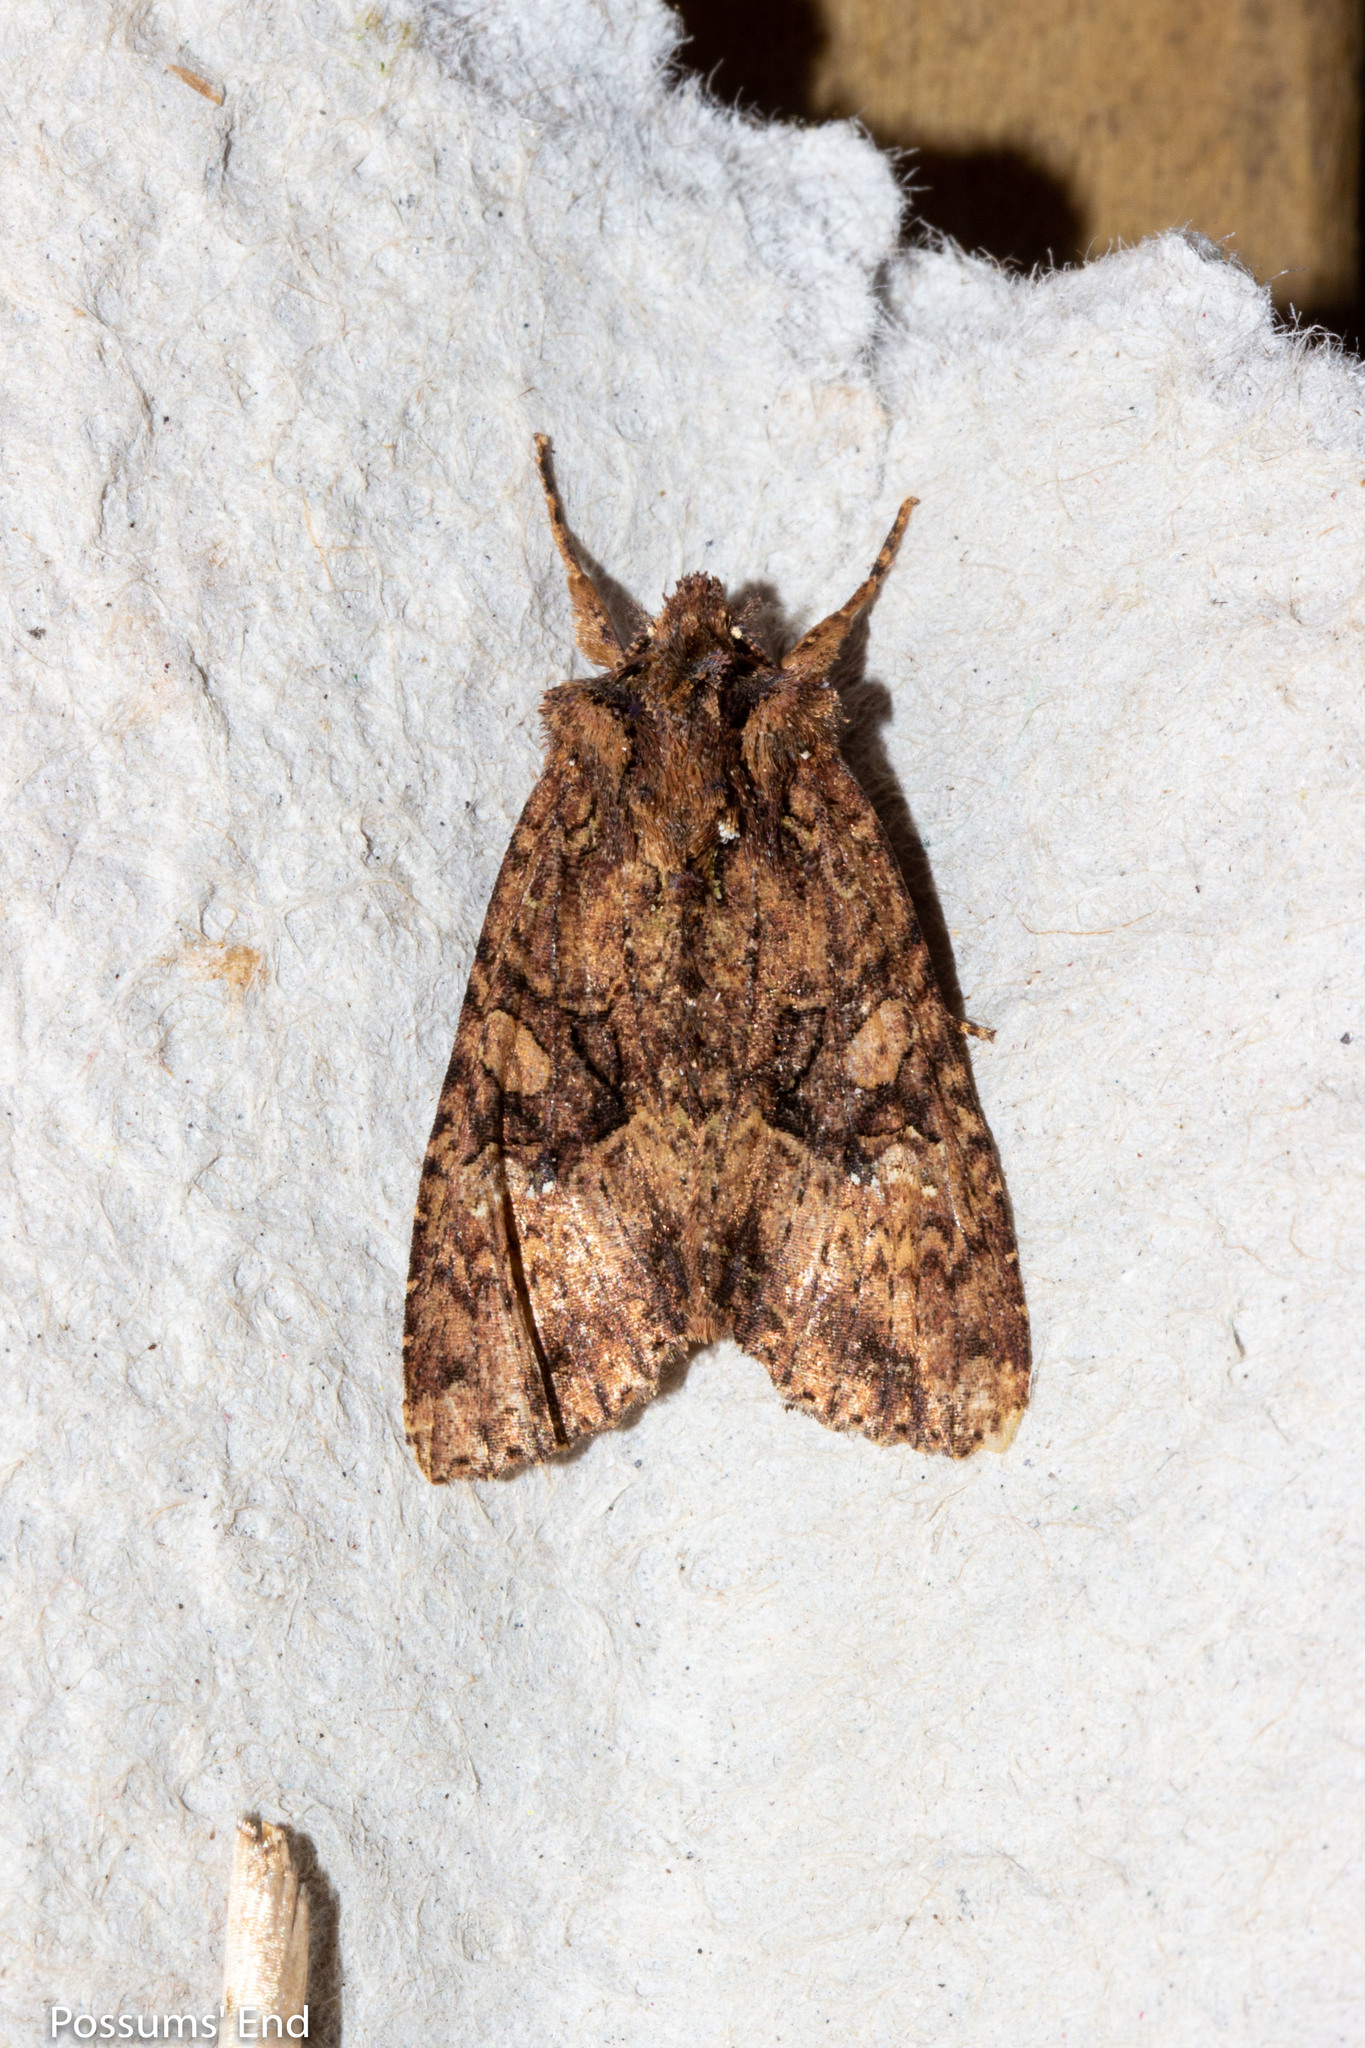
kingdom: Animalia
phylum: Arthropoda
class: Insecta
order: Lepidoptera
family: Noctuidae
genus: Meterana
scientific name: Meterana ochthistis
